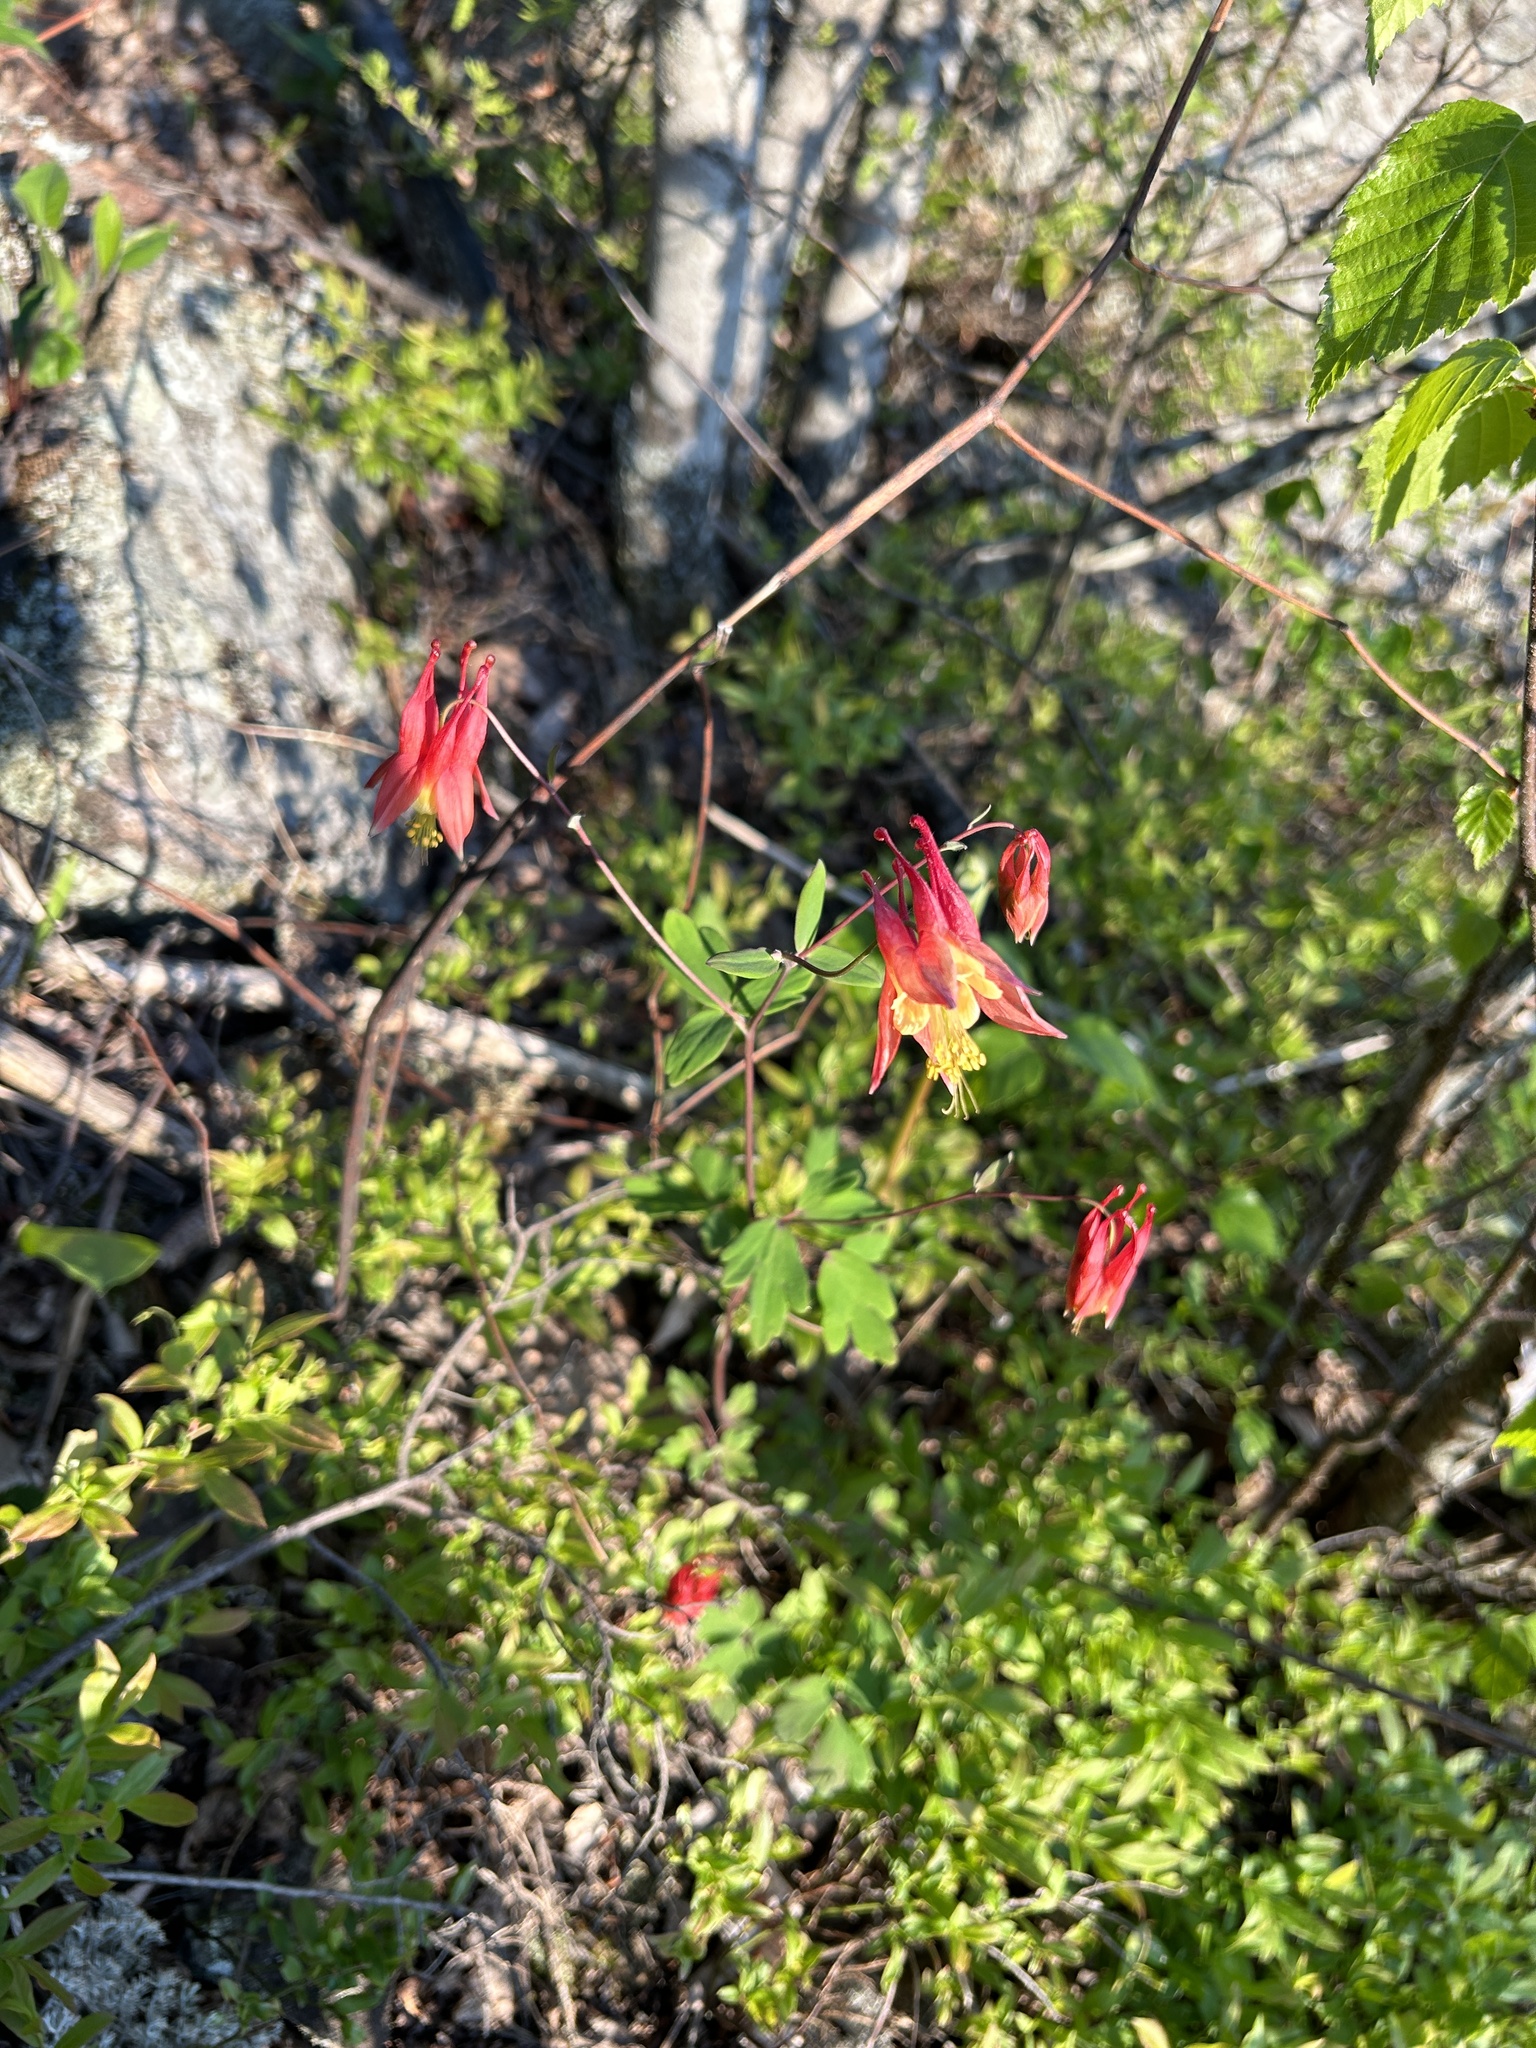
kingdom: Plantae
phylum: Tracheophyta
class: Magnoliopsida
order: Ranunculales
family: Ranunculaceae
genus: Aquilegia
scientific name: Aquilegia canadensis
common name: American columbine
